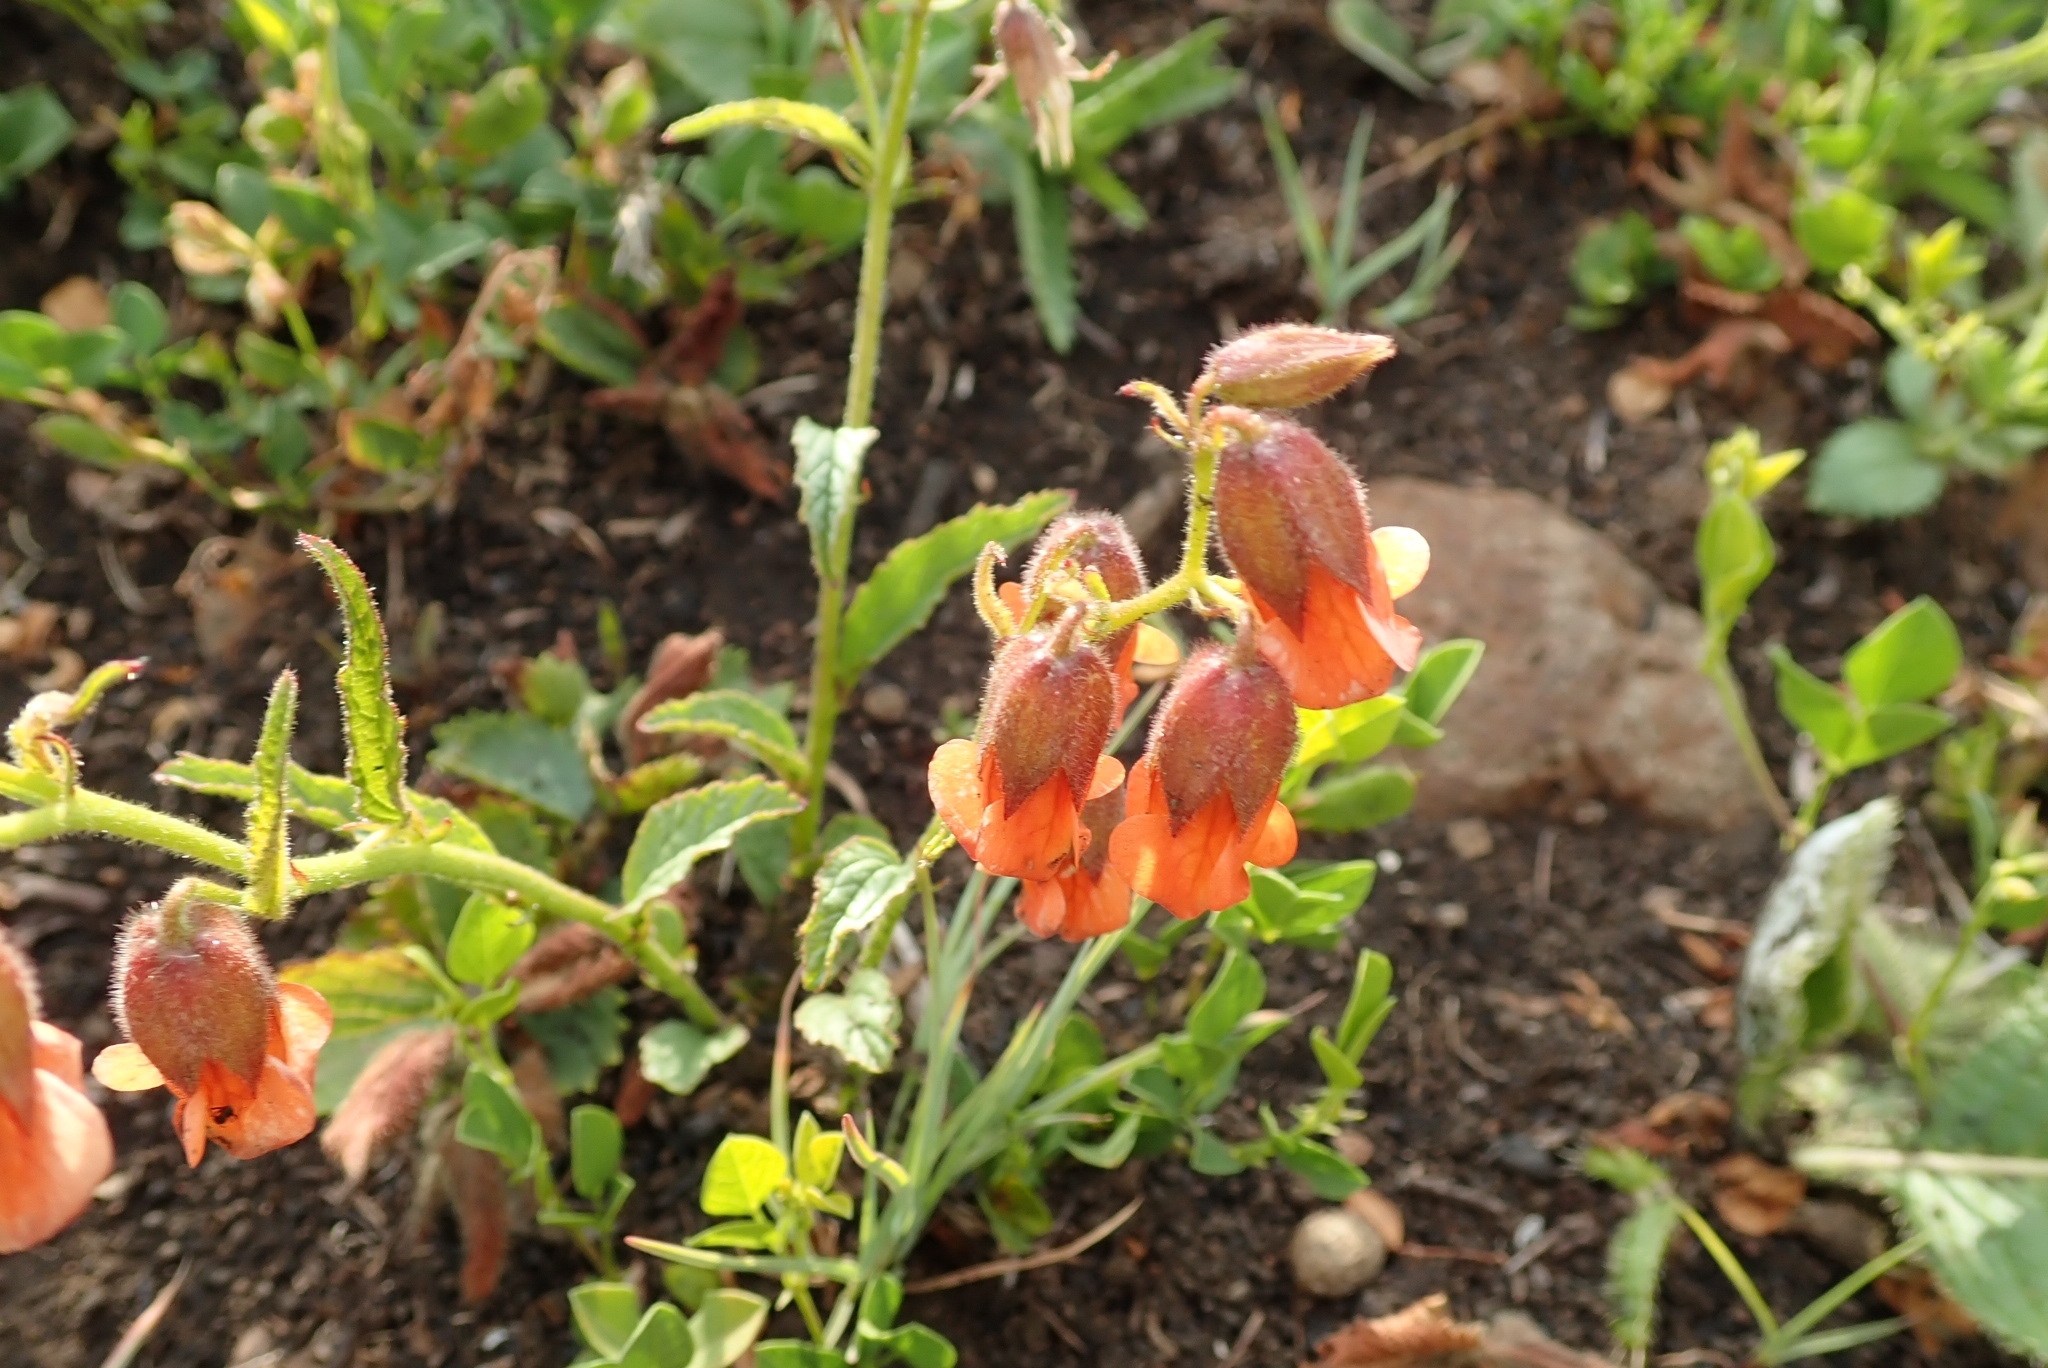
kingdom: Plantae
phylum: Tracheophyta
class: Magnoliopsida
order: Malvales
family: Malvaceae
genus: Hermannia
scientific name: Hermannia cristata
